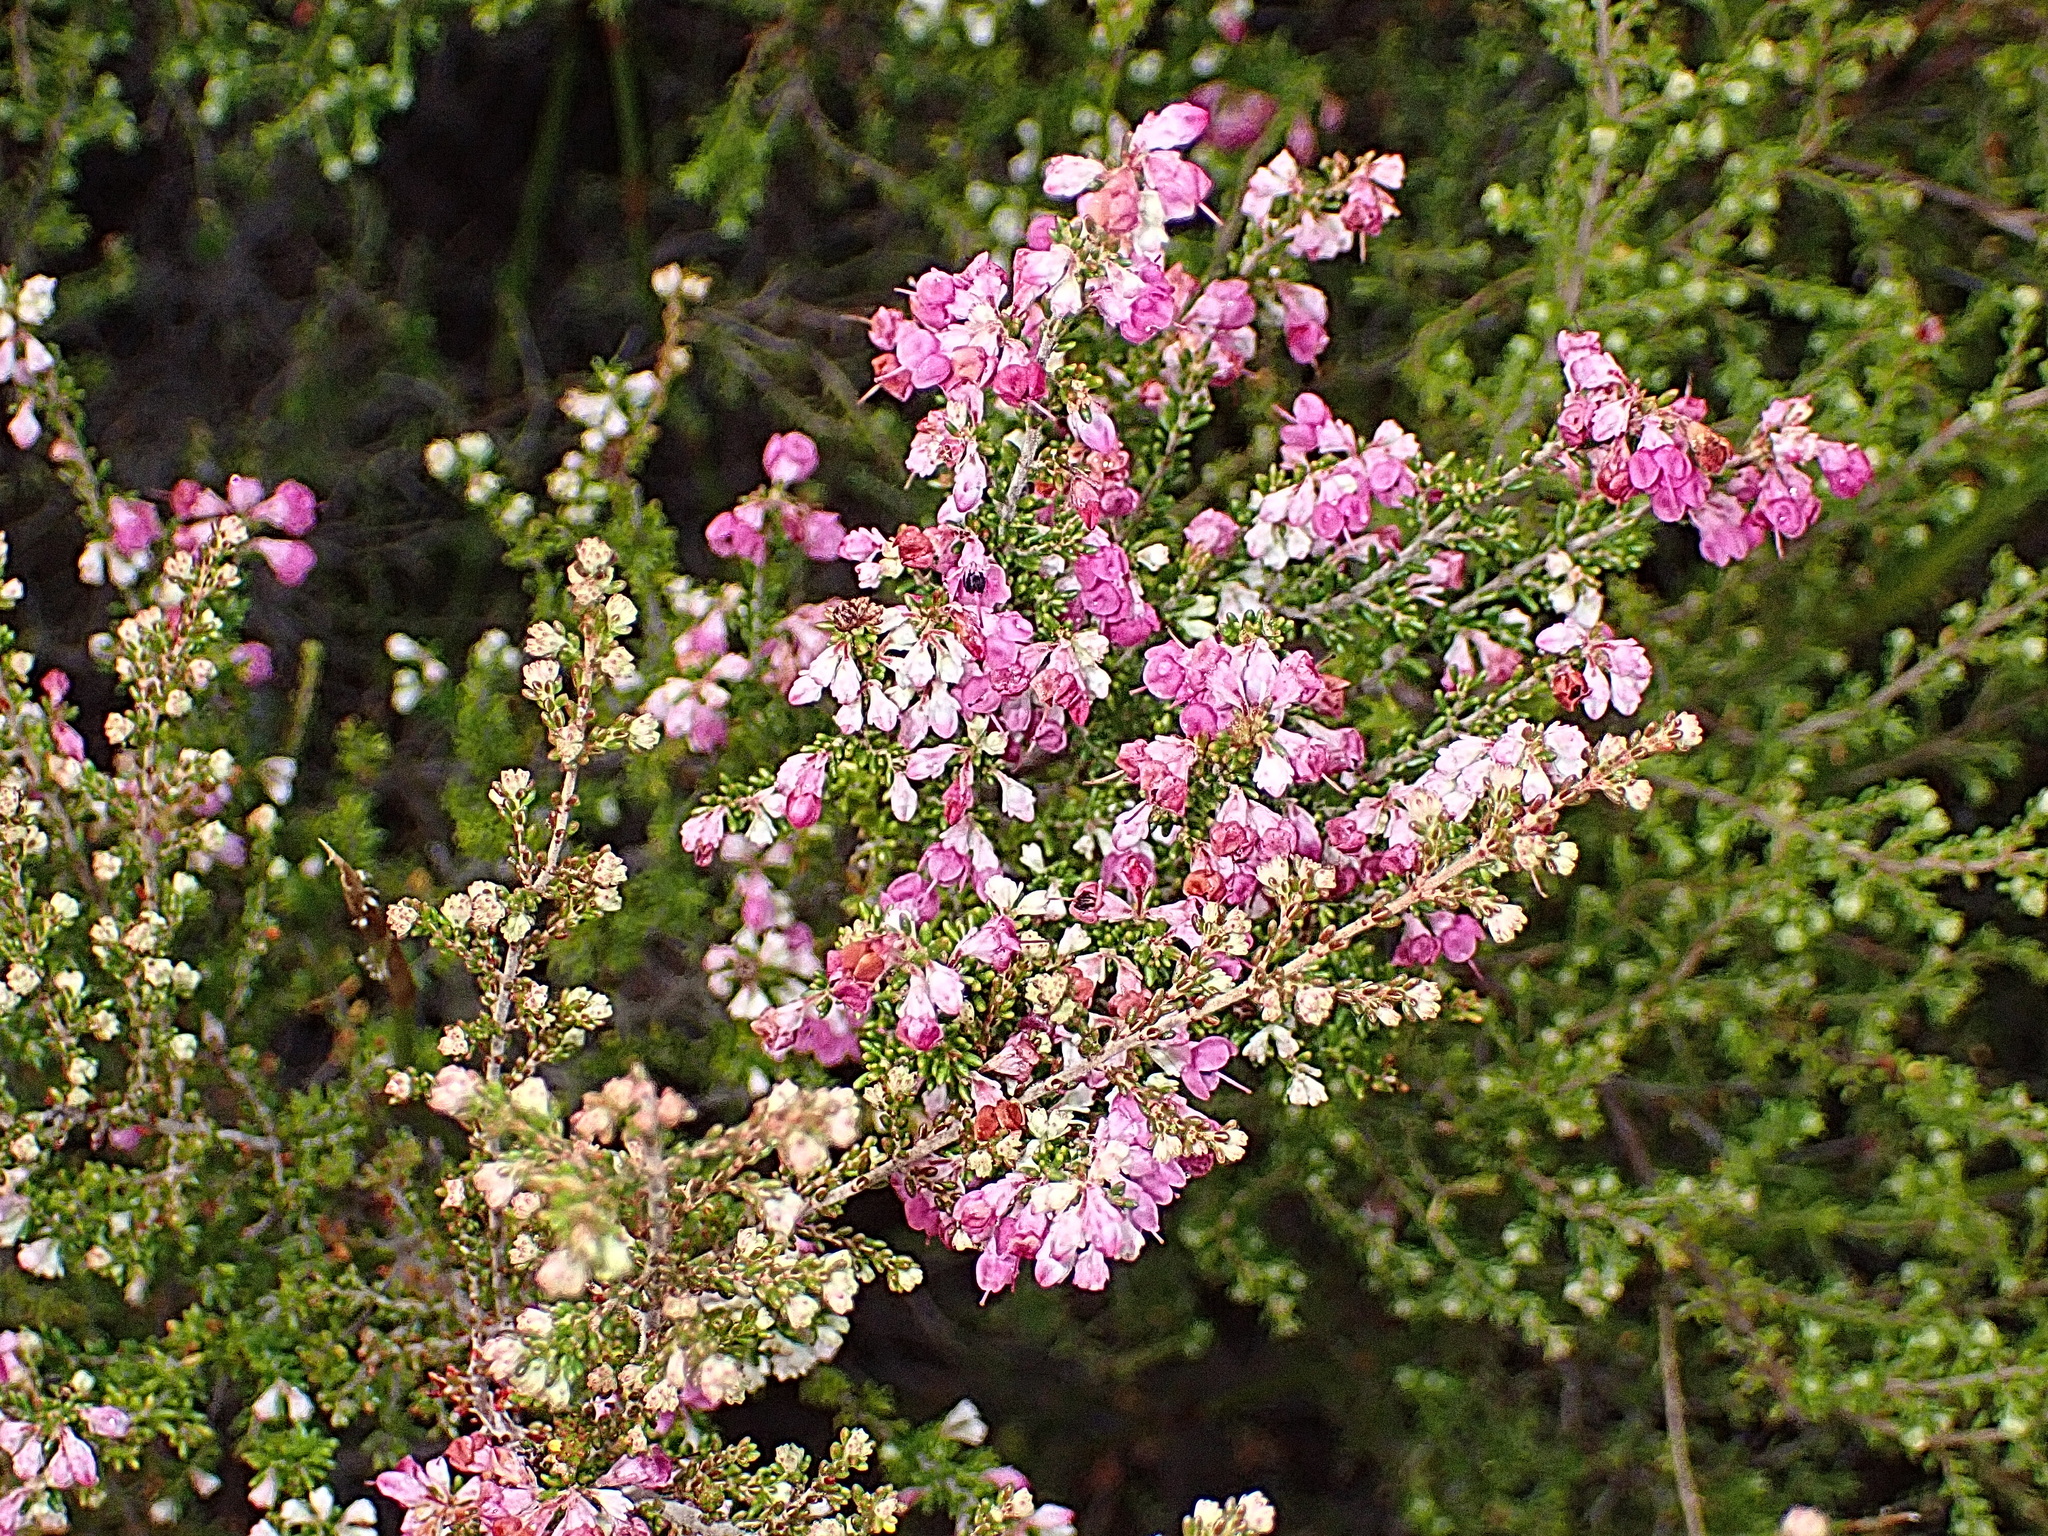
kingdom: Plantae
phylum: Tracheophyta
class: Magnoliopsida
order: Ericales
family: Ericaceae
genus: Erica
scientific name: Erica melanthera
